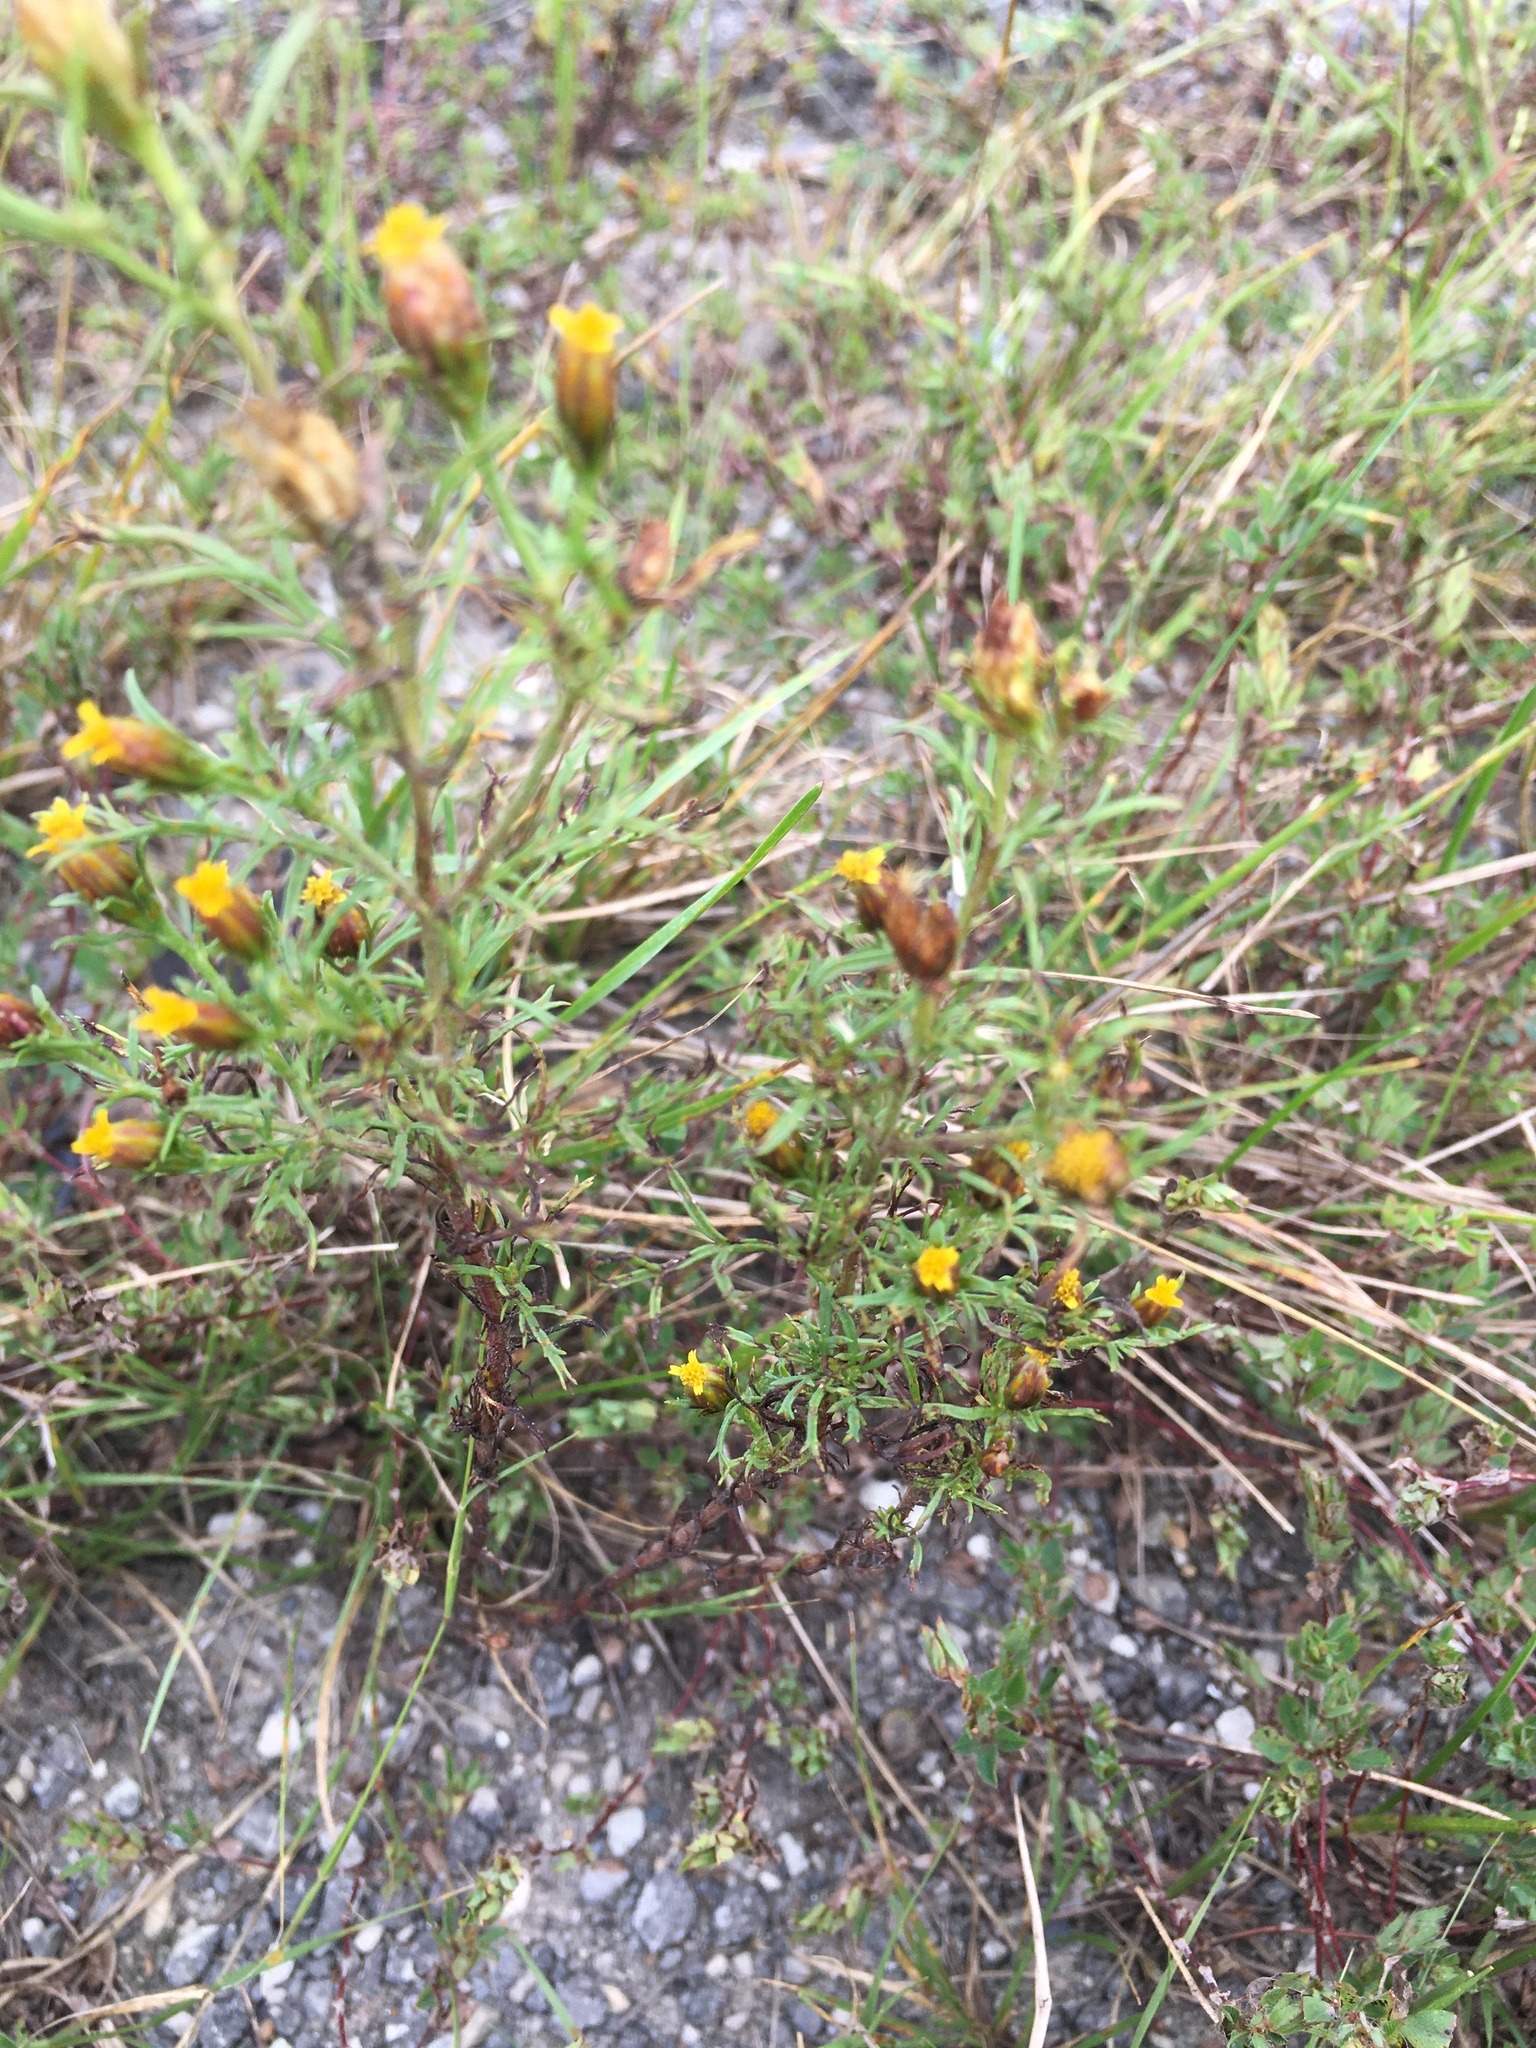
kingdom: Plantae
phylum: Tracheophyta
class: Magnoliopsida
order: Asterales
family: Asteraceae
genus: Dyssodia
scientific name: Dyssodia papposa
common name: Dogweed
